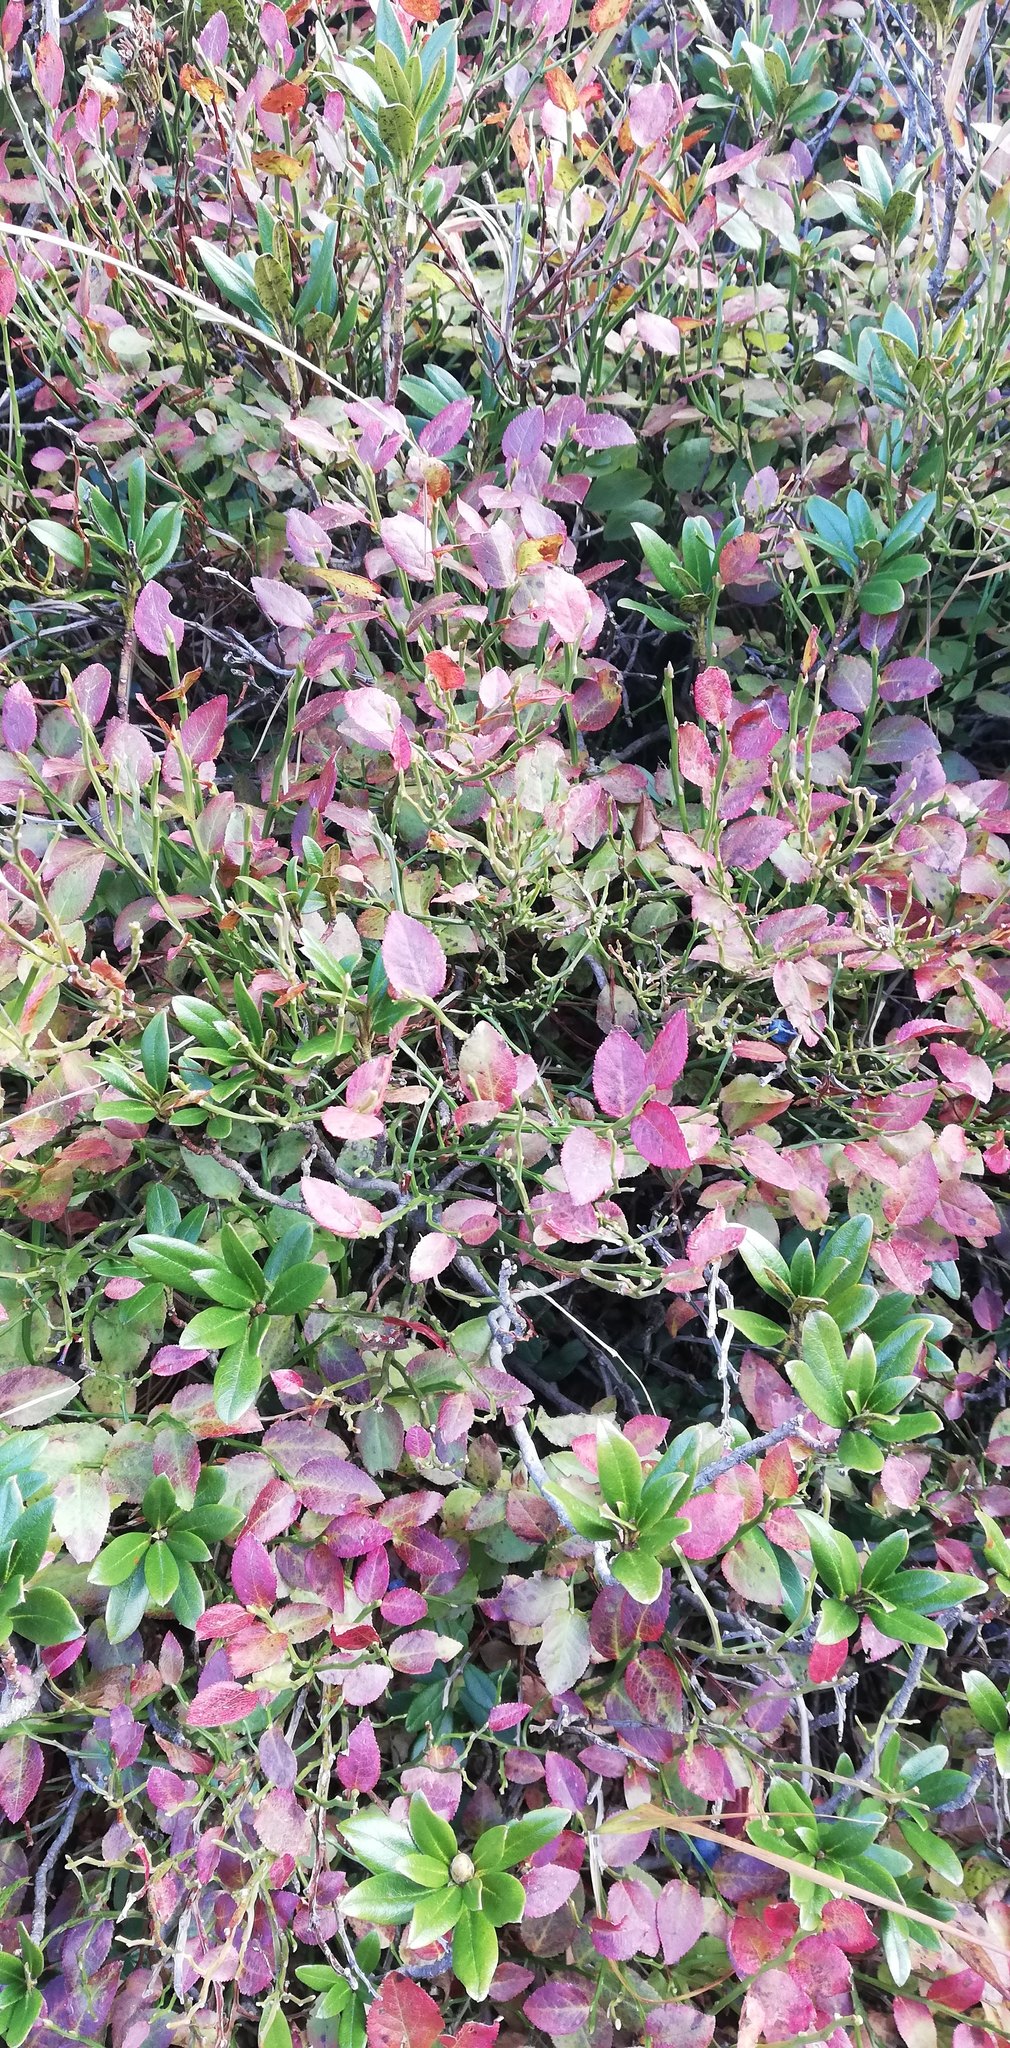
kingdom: Plantae
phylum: Tracheophyta
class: Magnoliopsida
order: Ericales
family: Ericaceae
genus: Vaccinium
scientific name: Vaccinium uliginosum
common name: Bog bilberry
